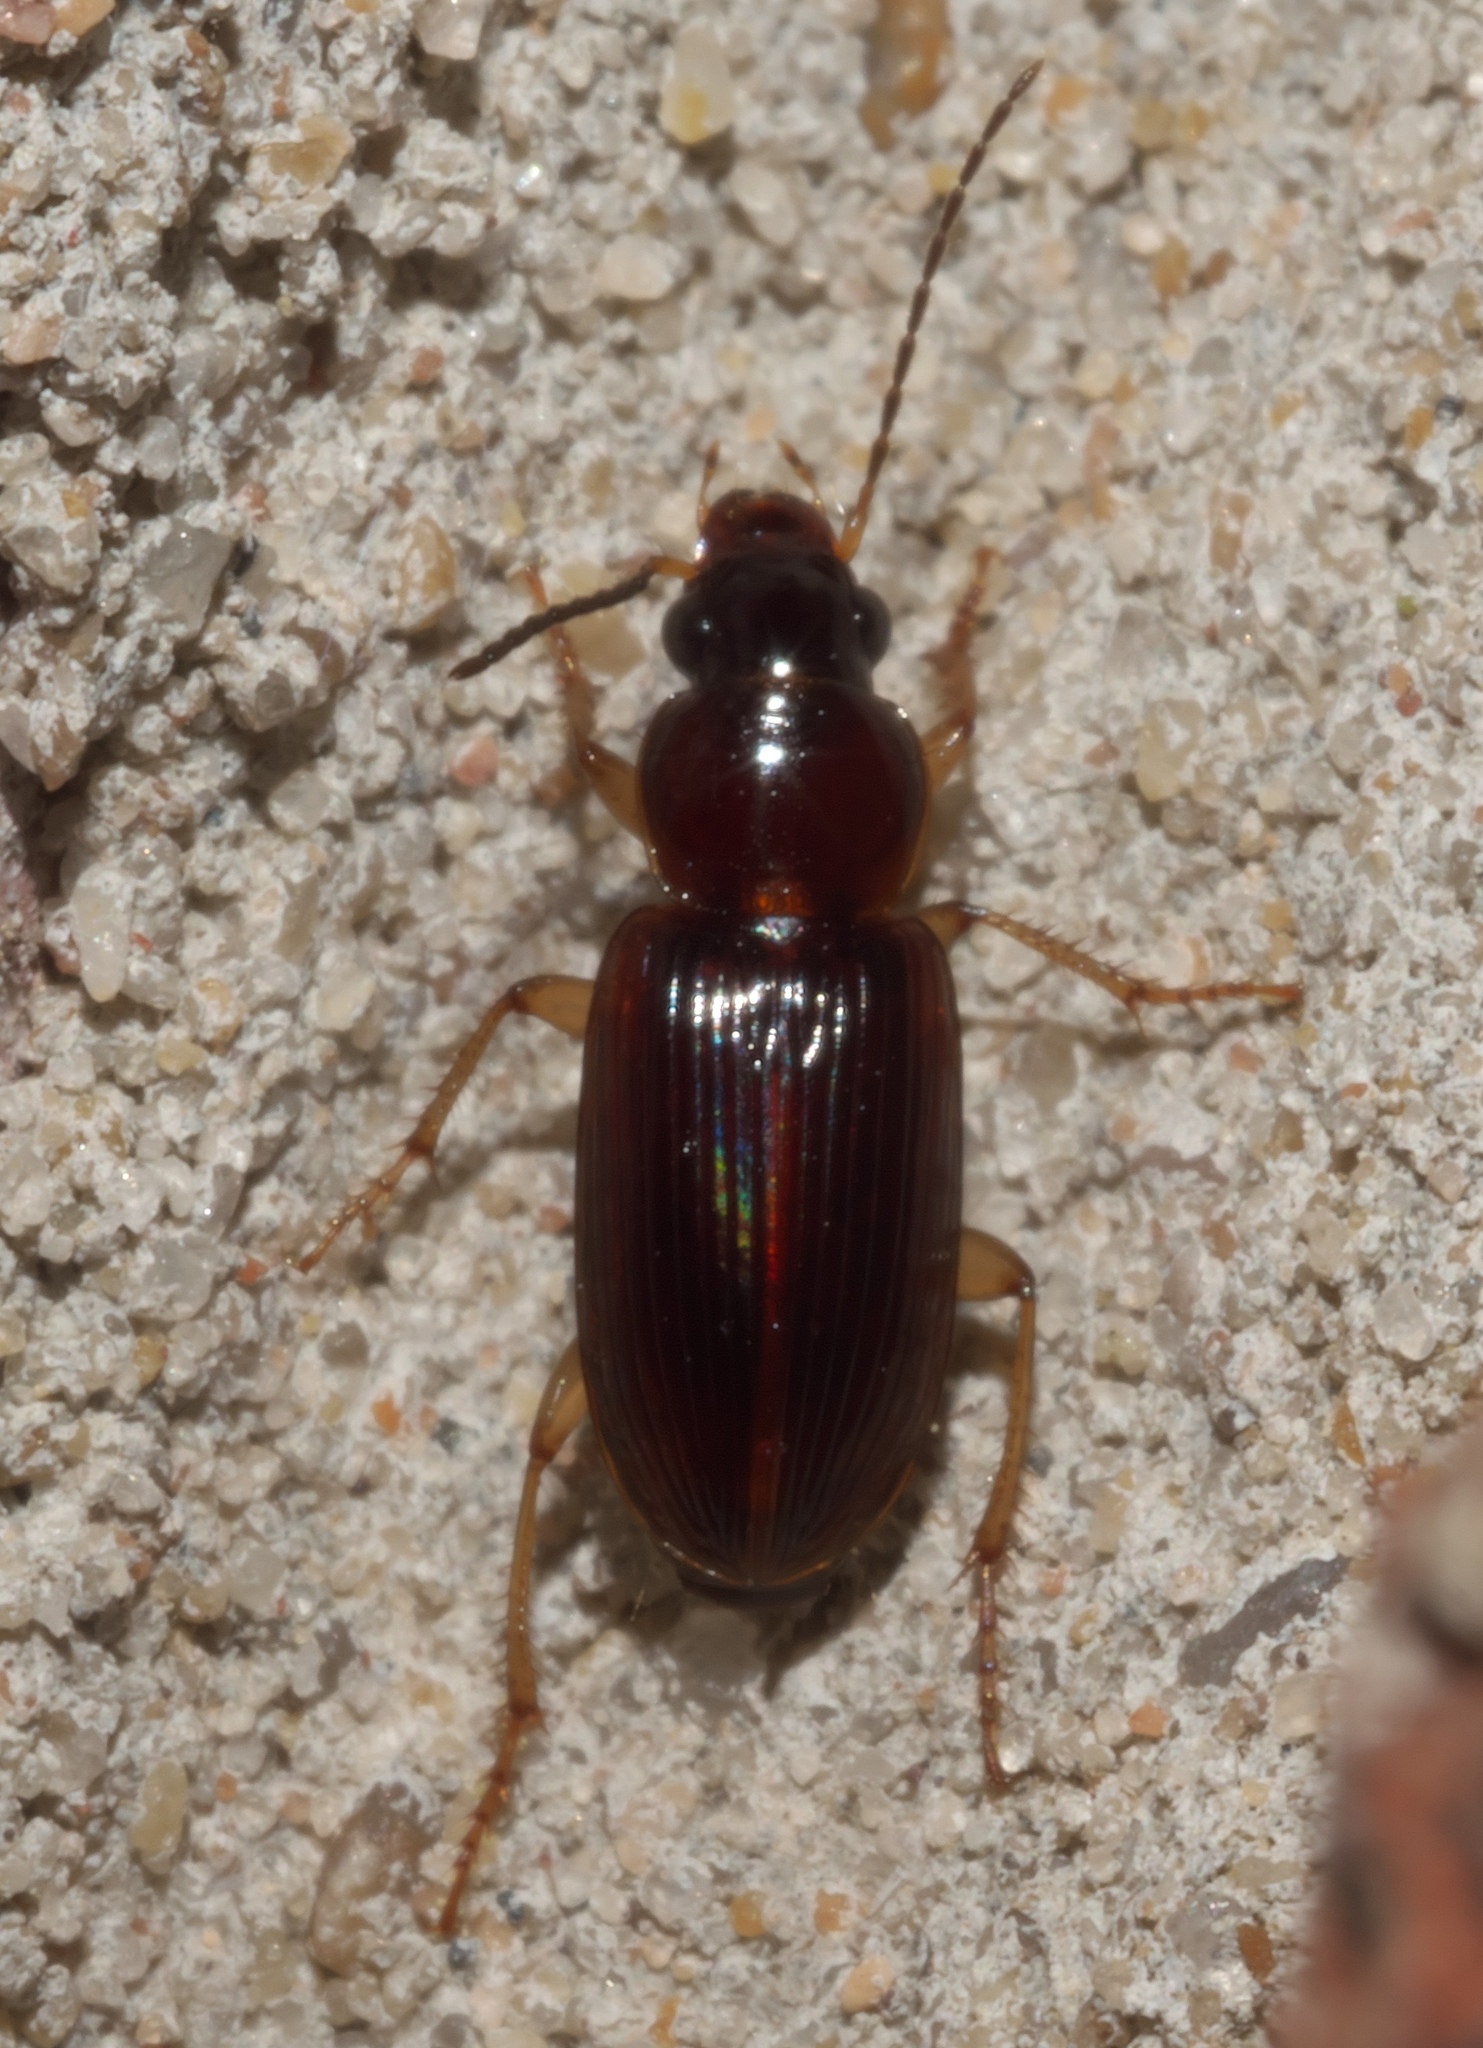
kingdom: Animalia
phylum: Arthropoda
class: Insecta
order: Coleoptera
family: Carabidae
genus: Stenolophus
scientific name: Stenolophus ochropezus
